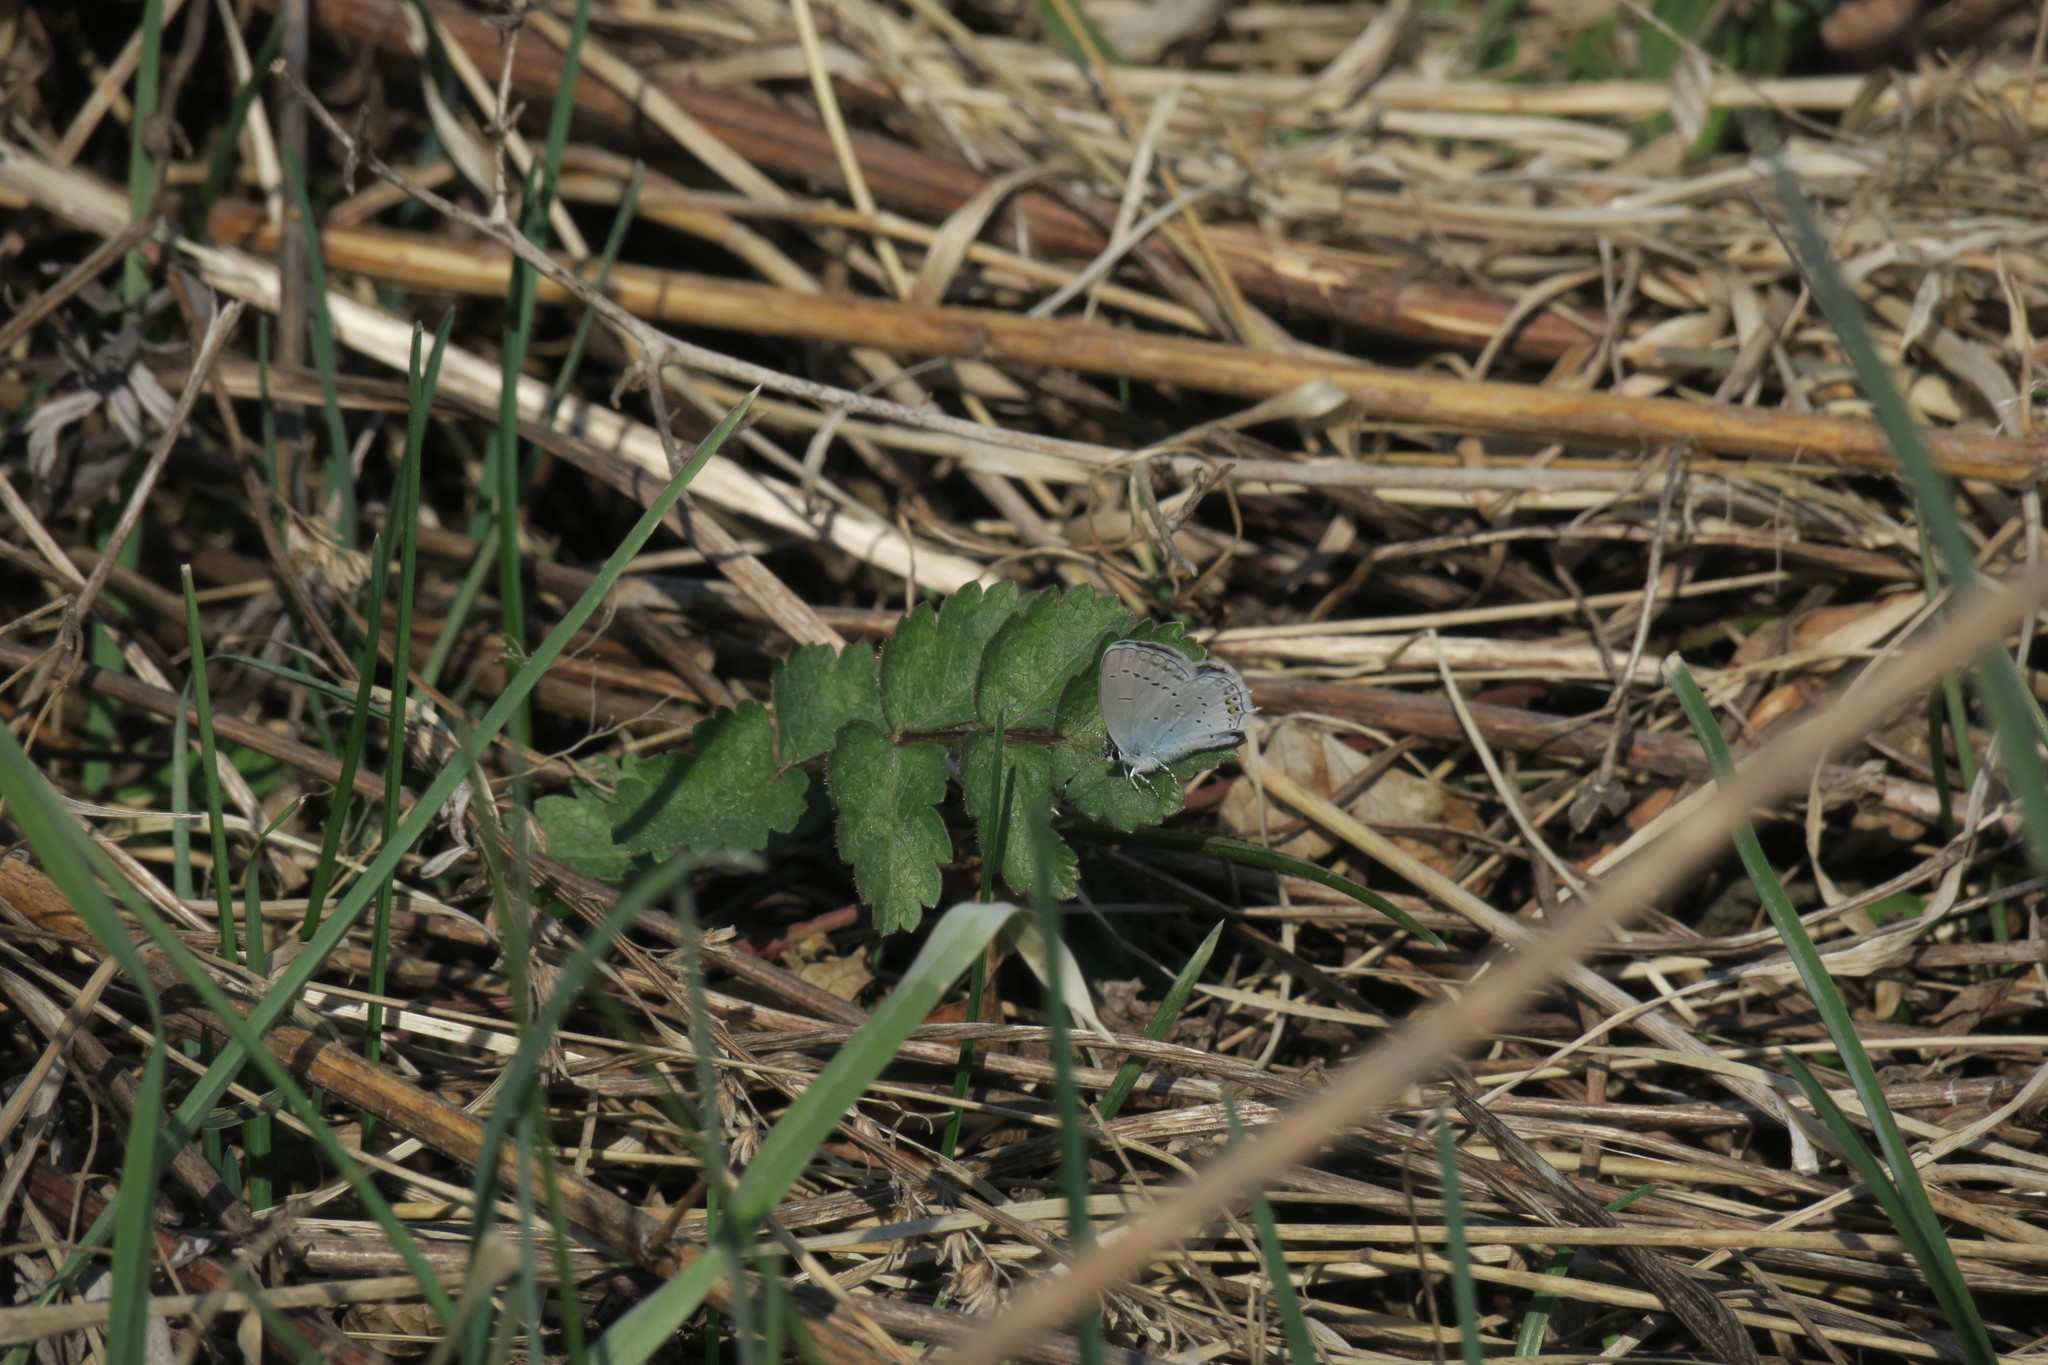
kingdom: Animalia
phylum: Arthropoda
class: Insecta
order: Lepidoptera
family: Lycaenidae
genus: Elkalyce
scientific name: Elkalyce argiades
